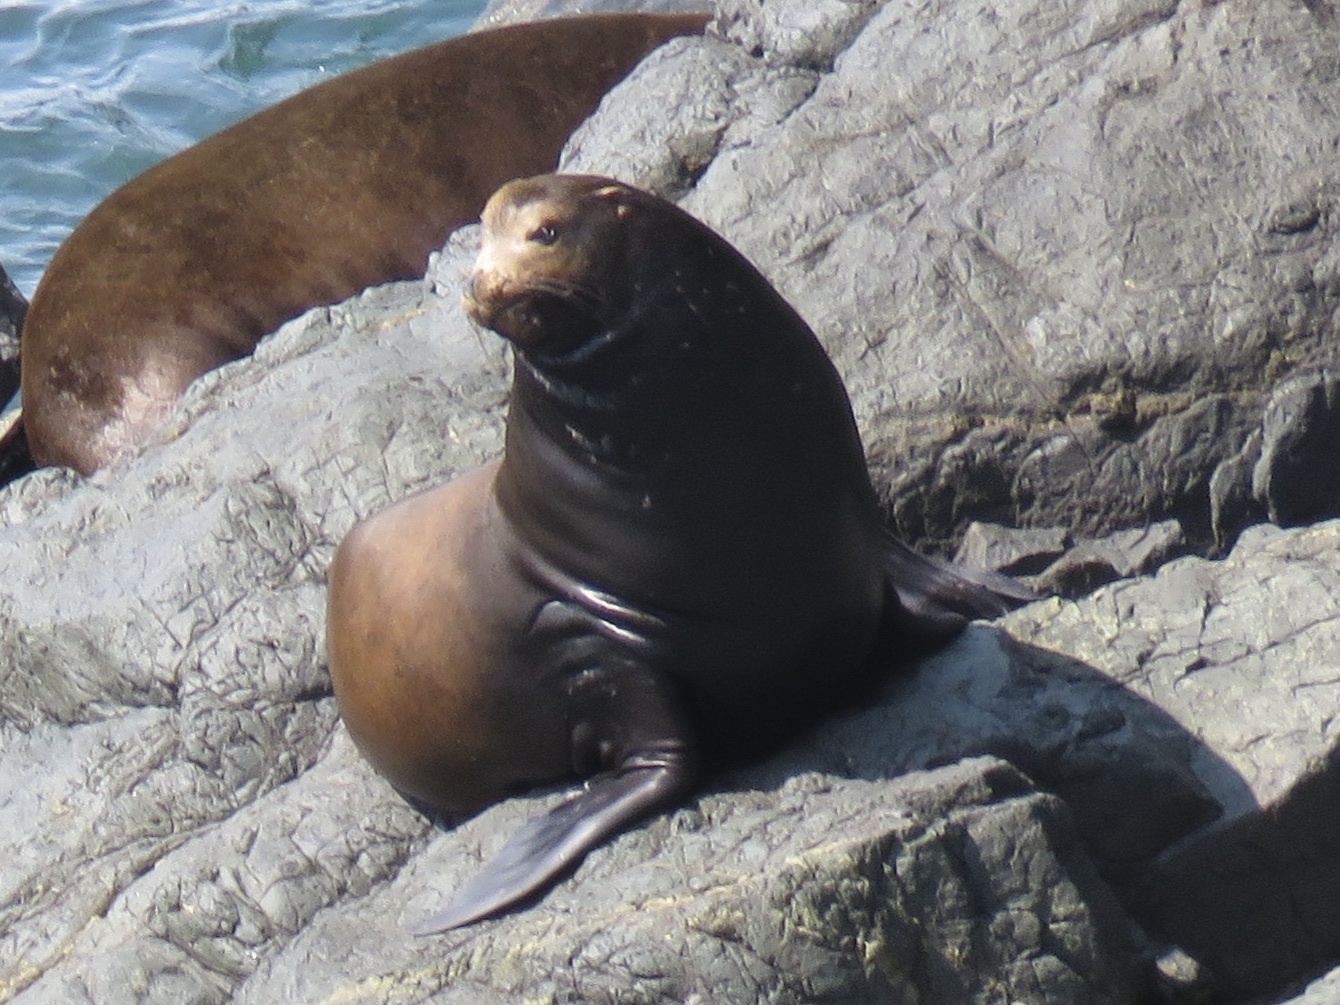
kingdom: Animalia
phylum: Chordata
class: Mammalia
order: Carnivora
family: Otariidae
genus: Zalophus
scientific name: Zalophus californianus
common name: California sea lion
